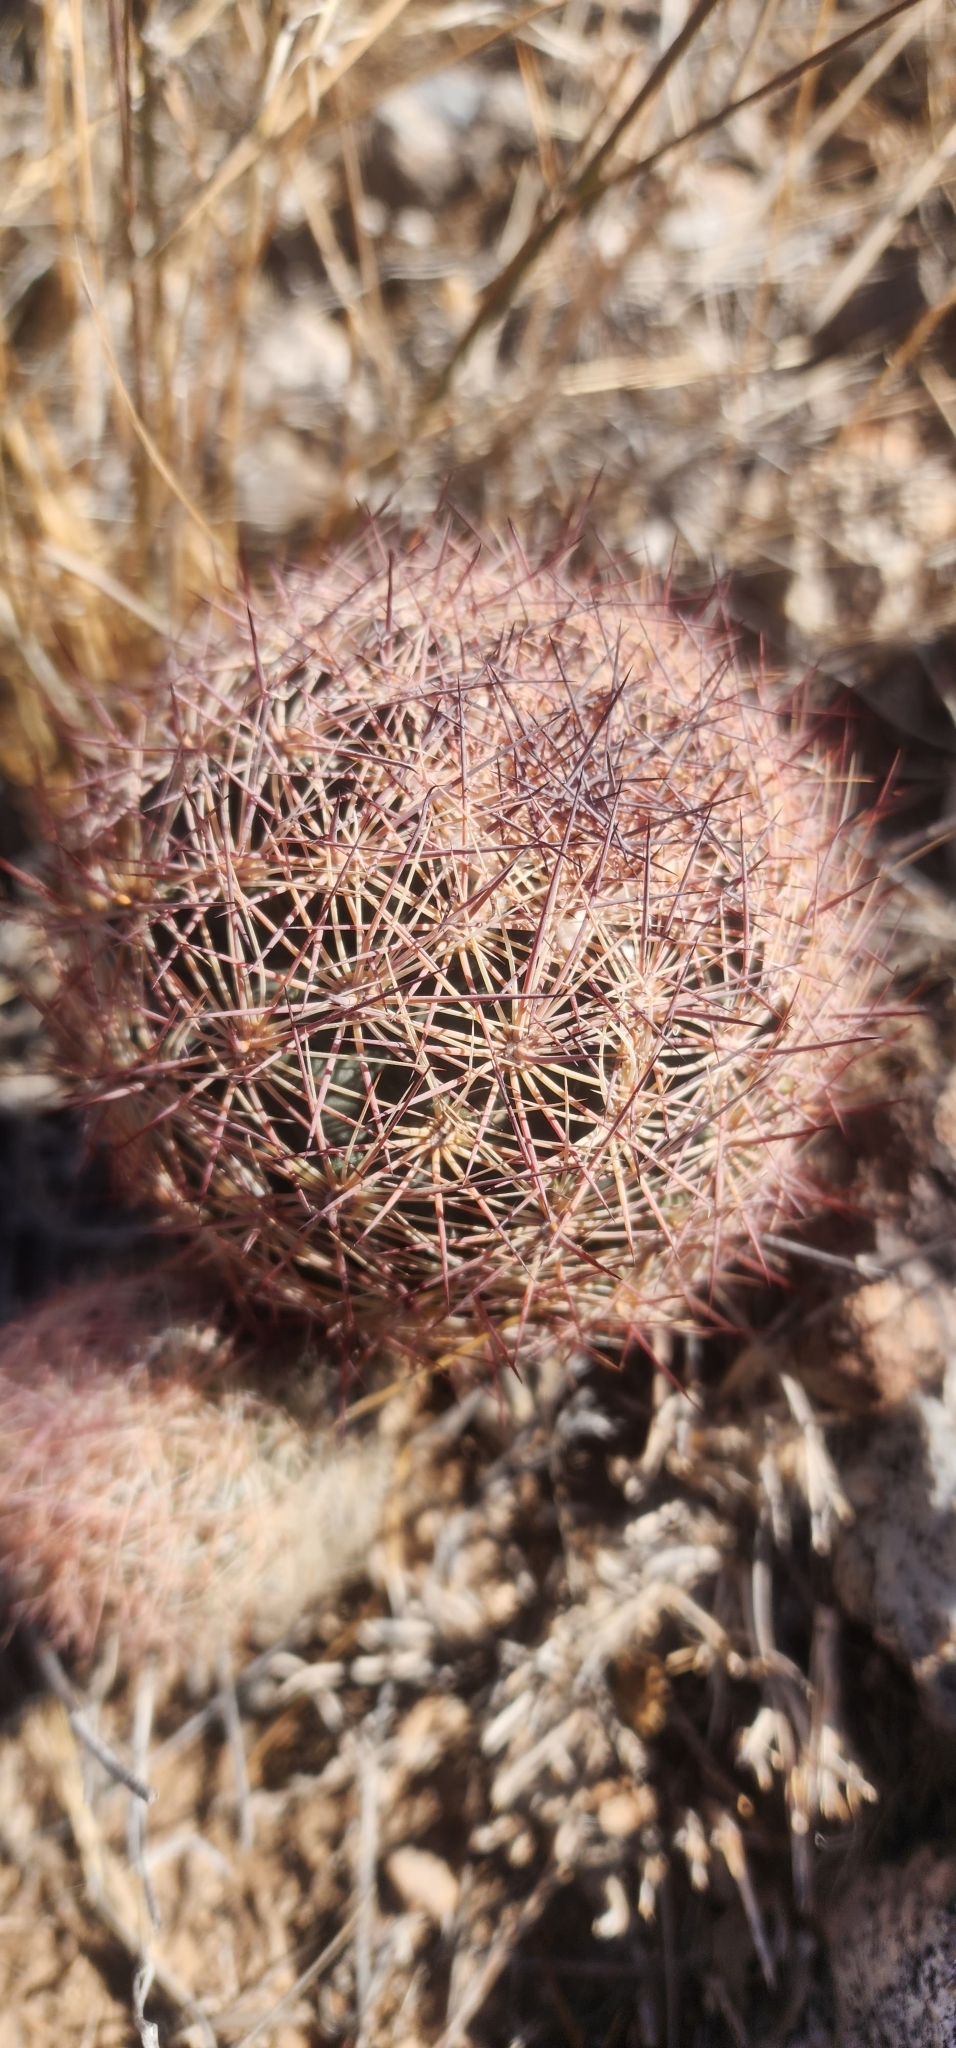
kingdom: Plantae
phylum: Tracheophyta
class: Magnoliopsida
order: Caryophyllales
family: Cactaceae
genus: Sclerocactus
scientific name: Sclerocactus intertextus
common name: White fish-hook cactus
